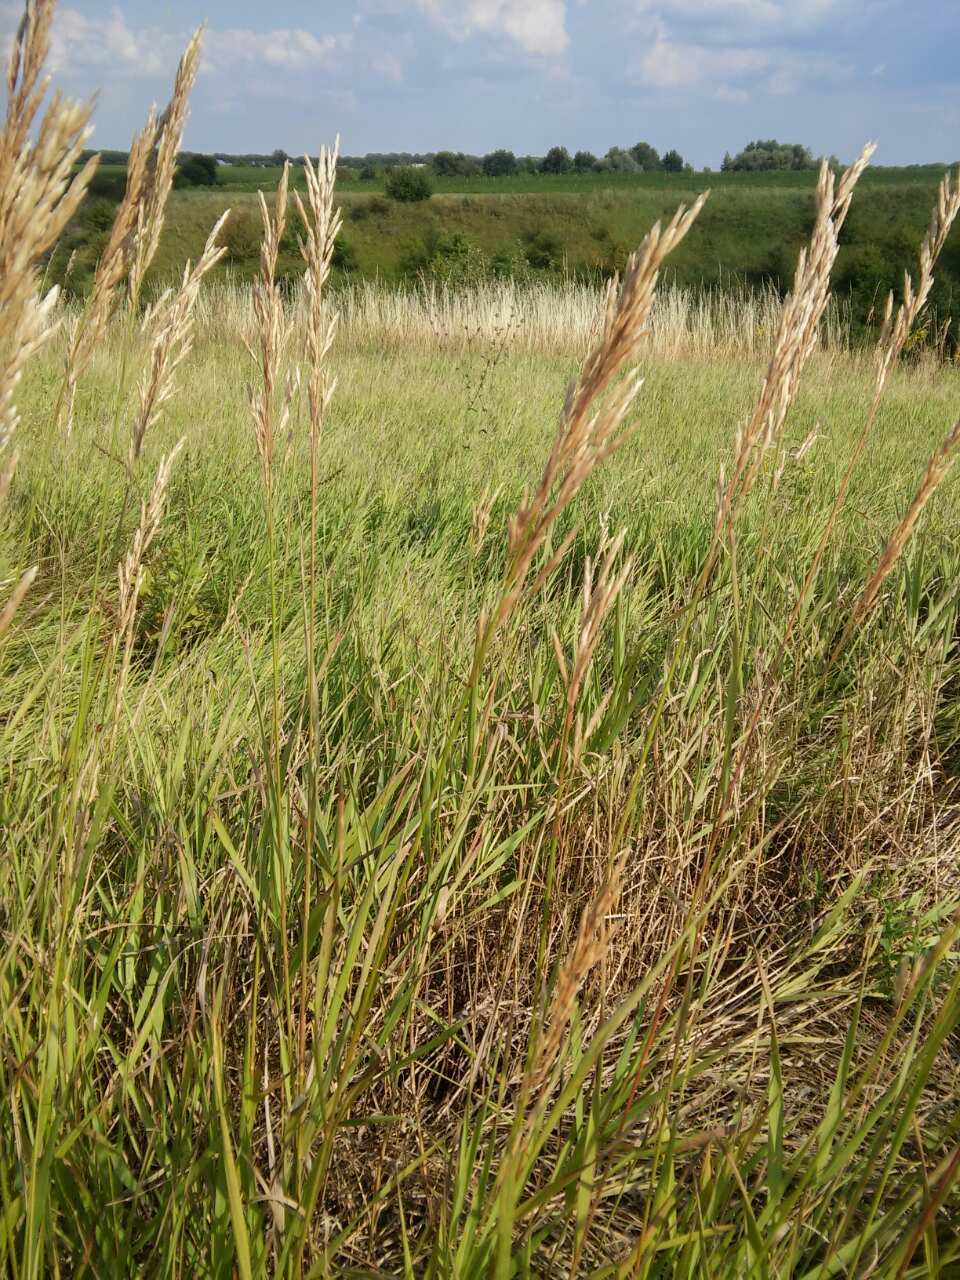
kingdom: Plantae
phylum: Tracheophyta
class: Liliopsida
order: Poales
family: Poaceae
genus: Bromus
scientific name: Bromus inermis
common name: Smooth brome
